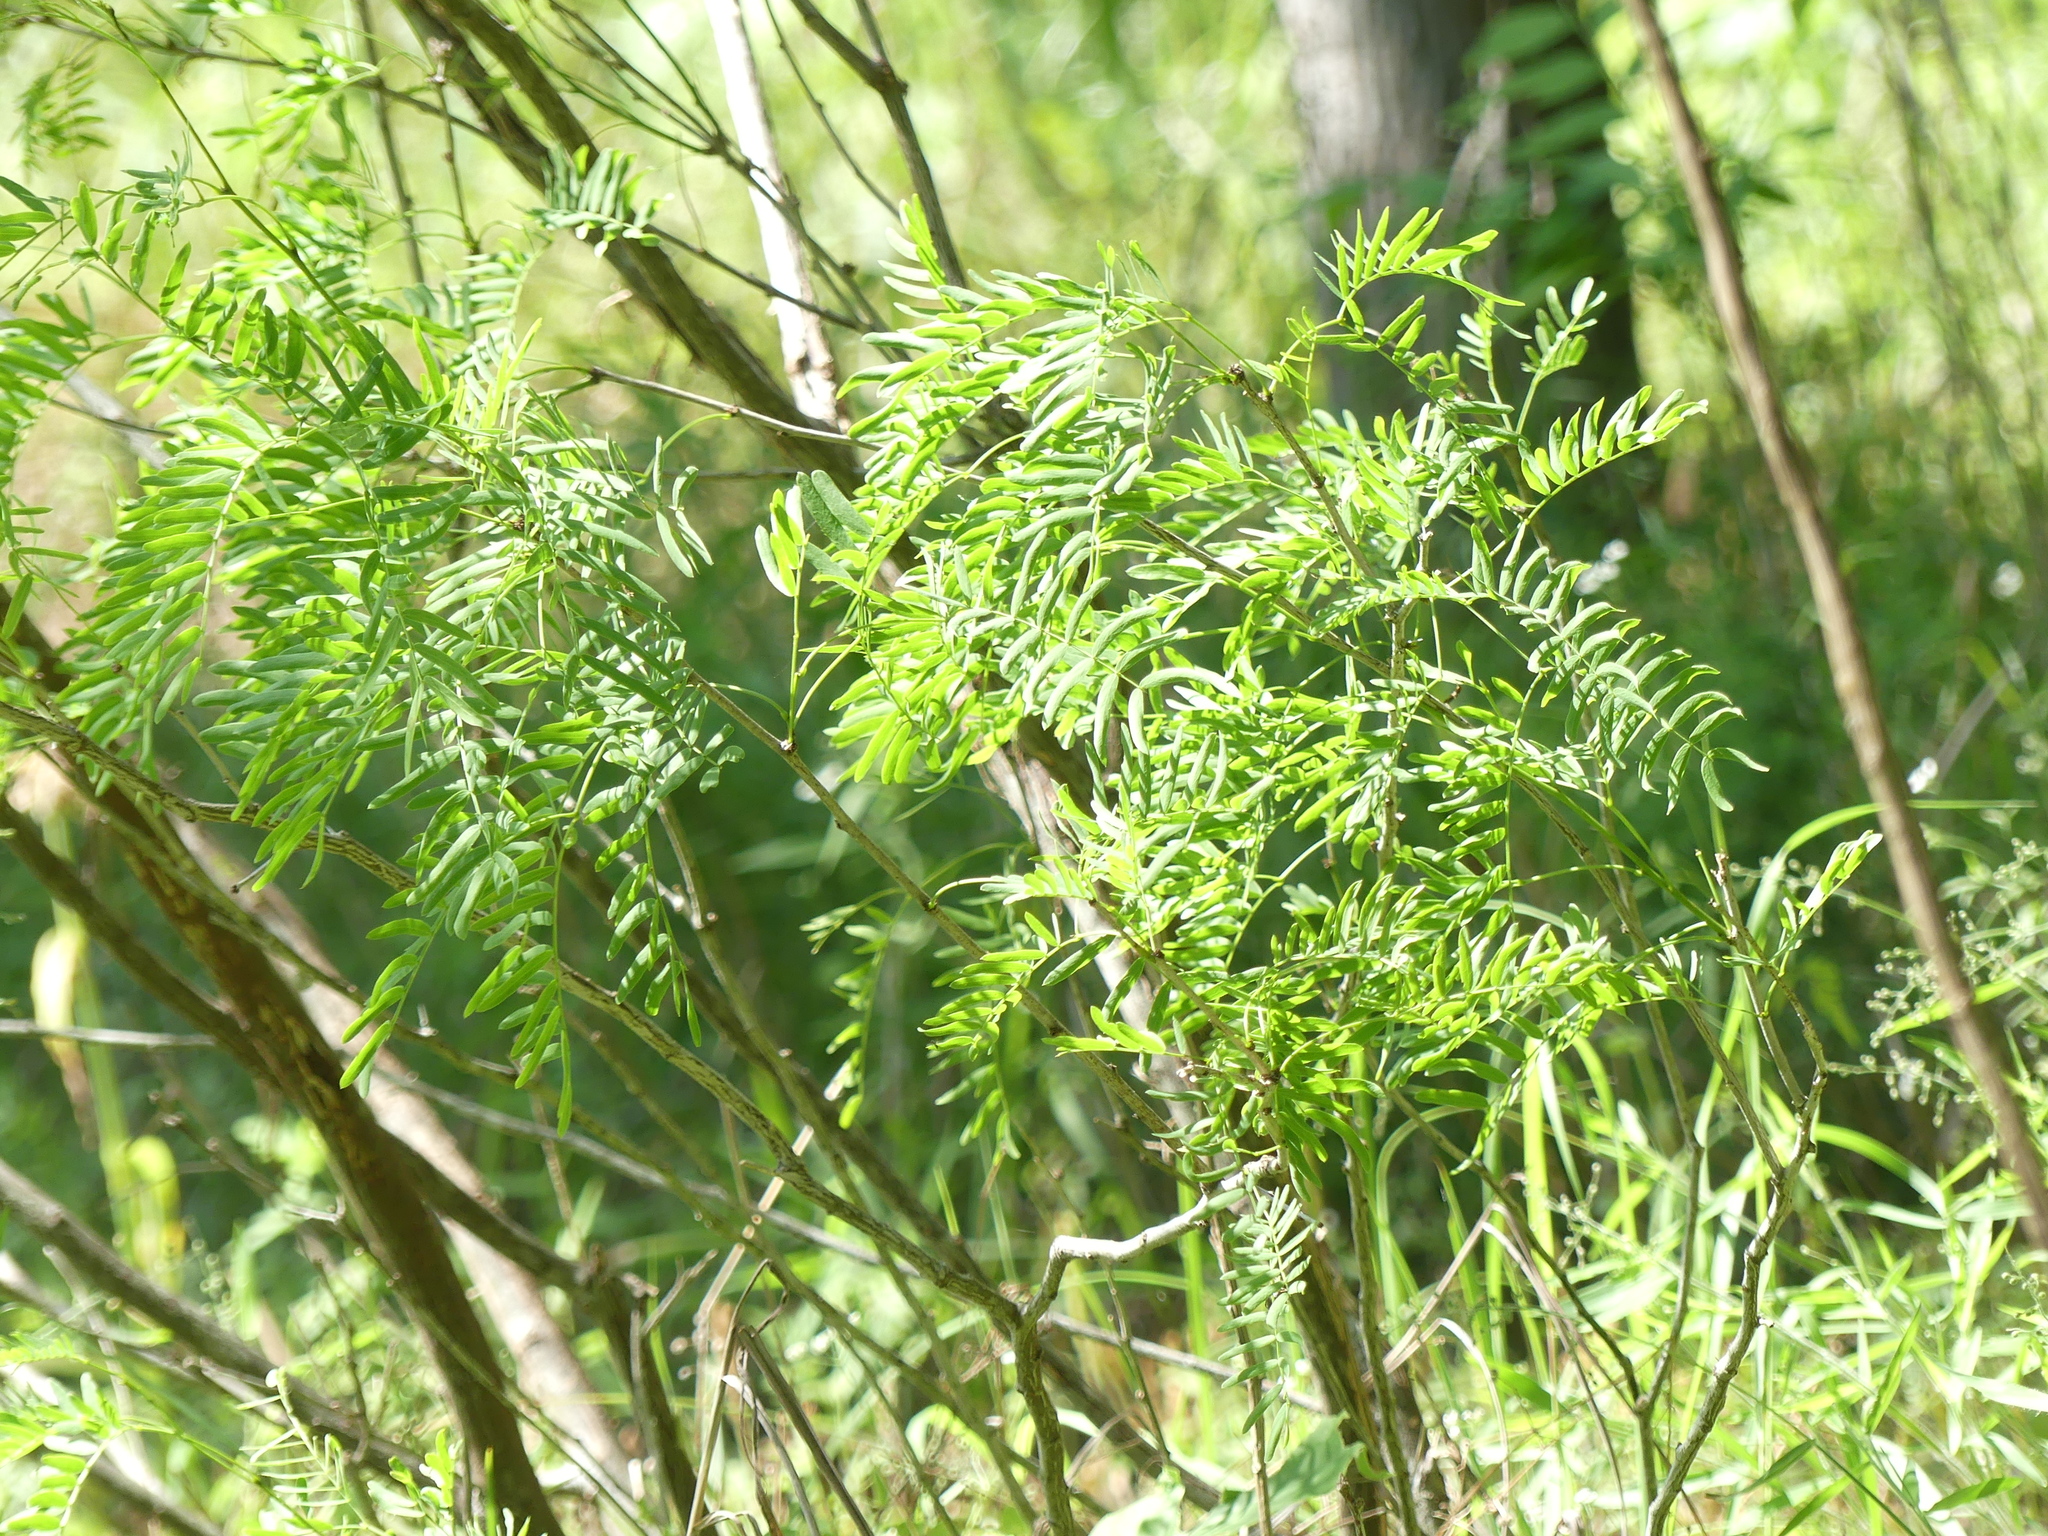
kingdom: Plantae
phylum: Tracheophyta
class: Magnoliopsida
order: Fabales
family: Fabaceae
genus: Prosopis
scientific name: Prosopis glandulosa
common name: Honey mesquite
